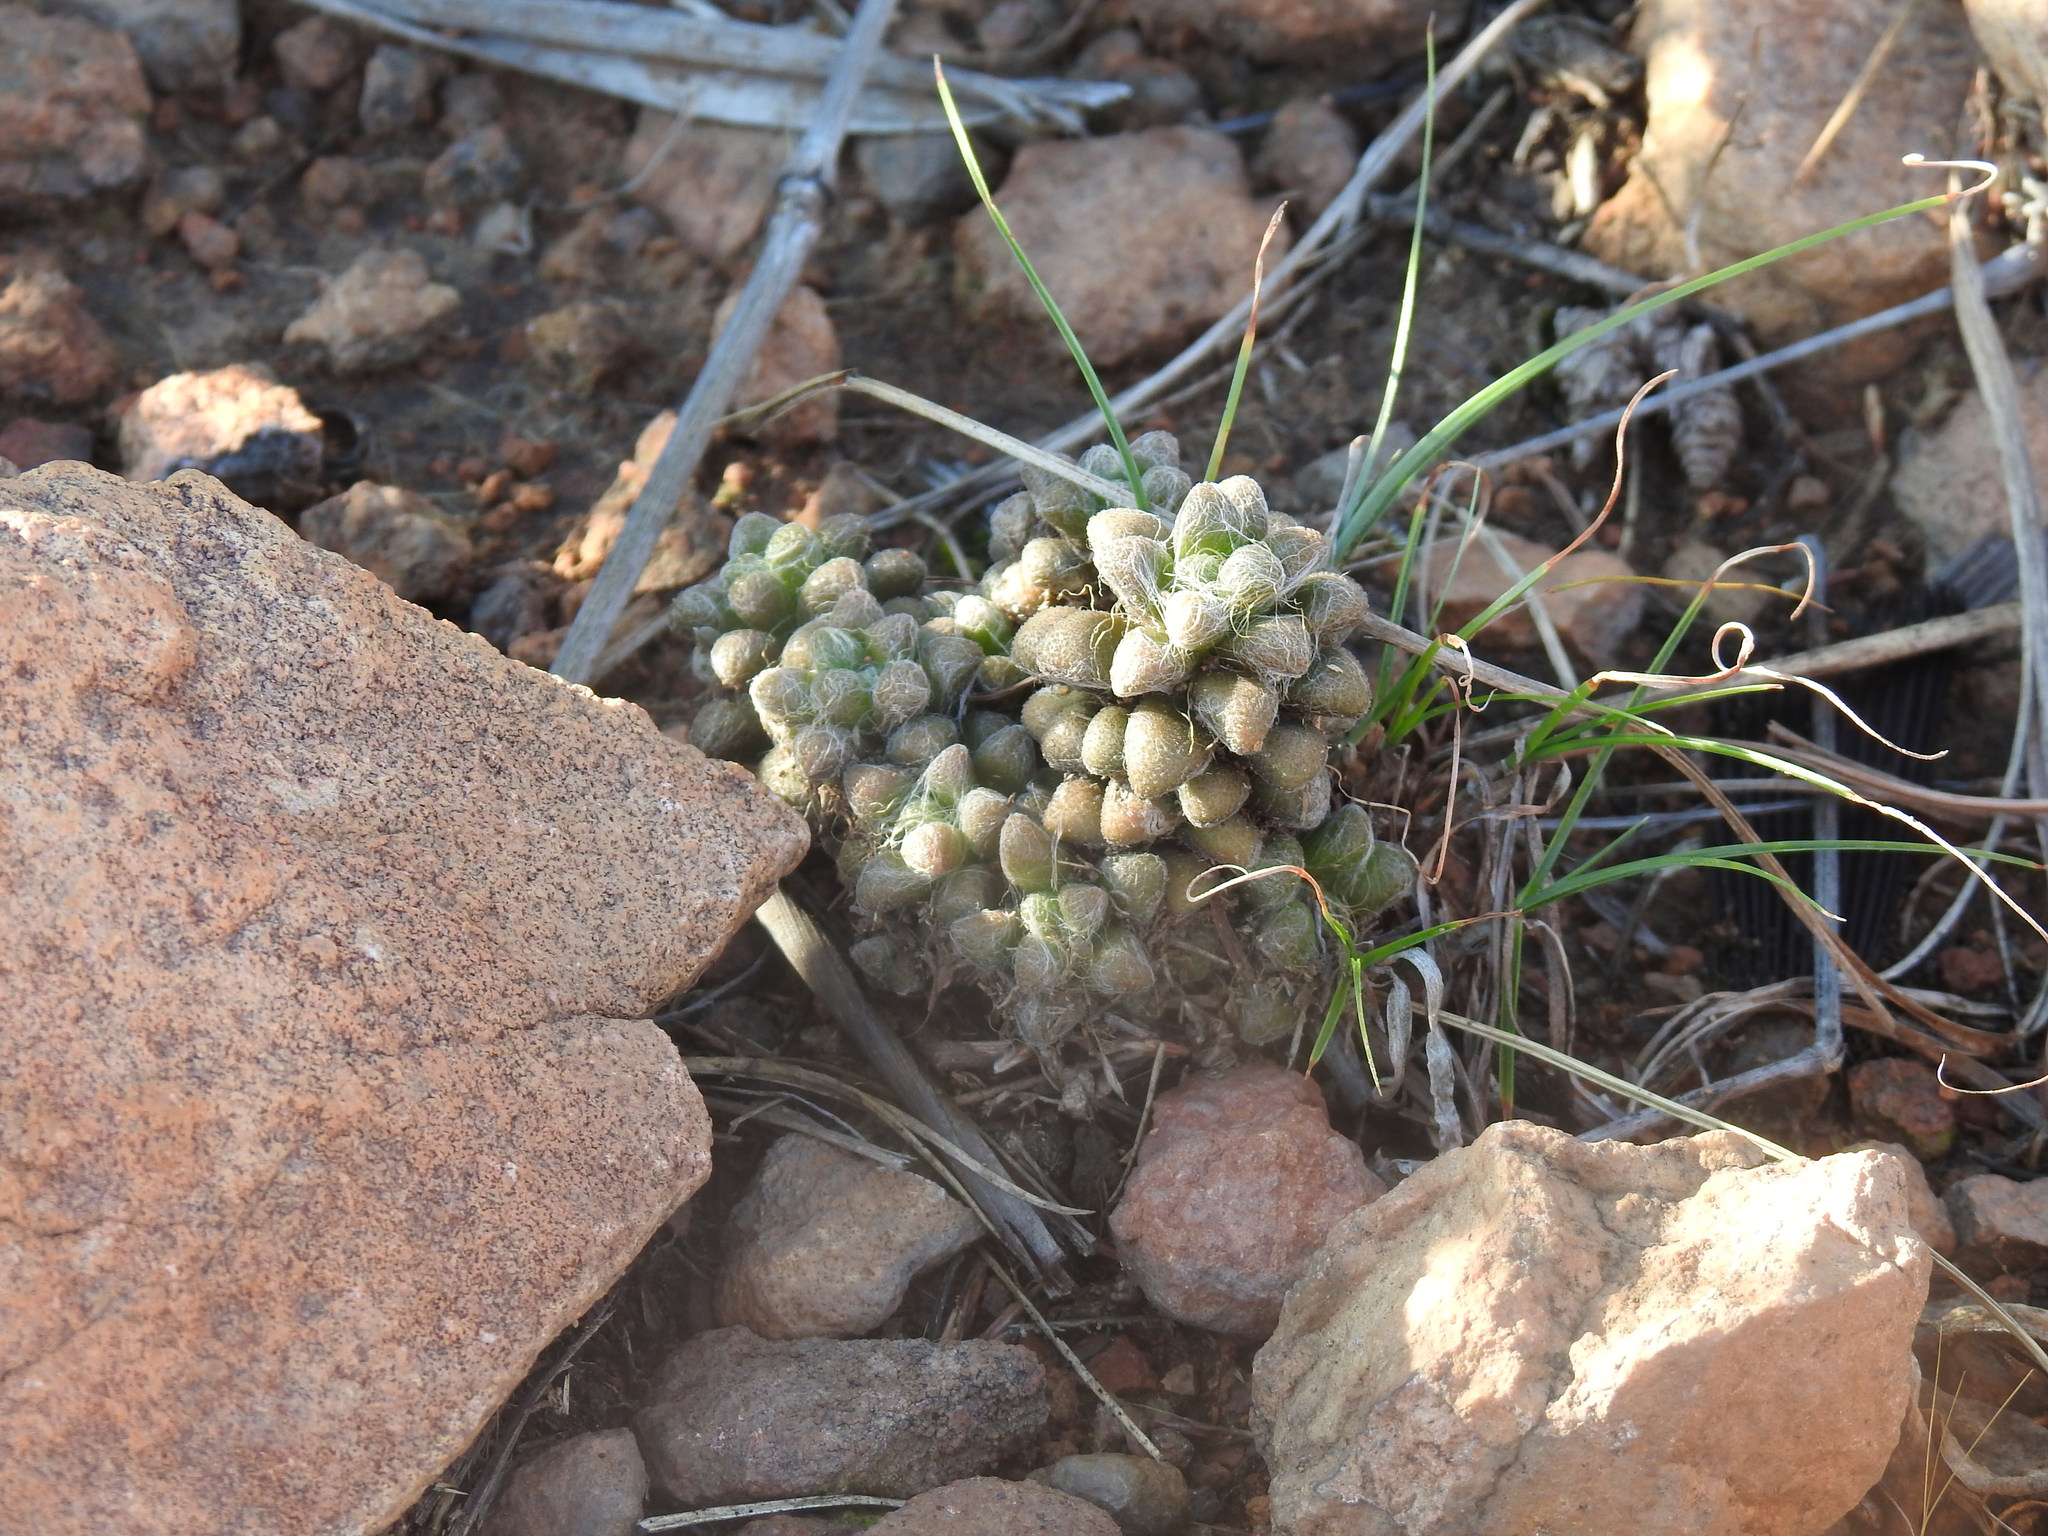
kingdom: Plantae
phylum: Tracheophyta
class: Magnoliopsida
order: Caryophyllales
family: Anacampserotaceae
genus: Anacampseros
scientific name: Anacampseros subnuda
